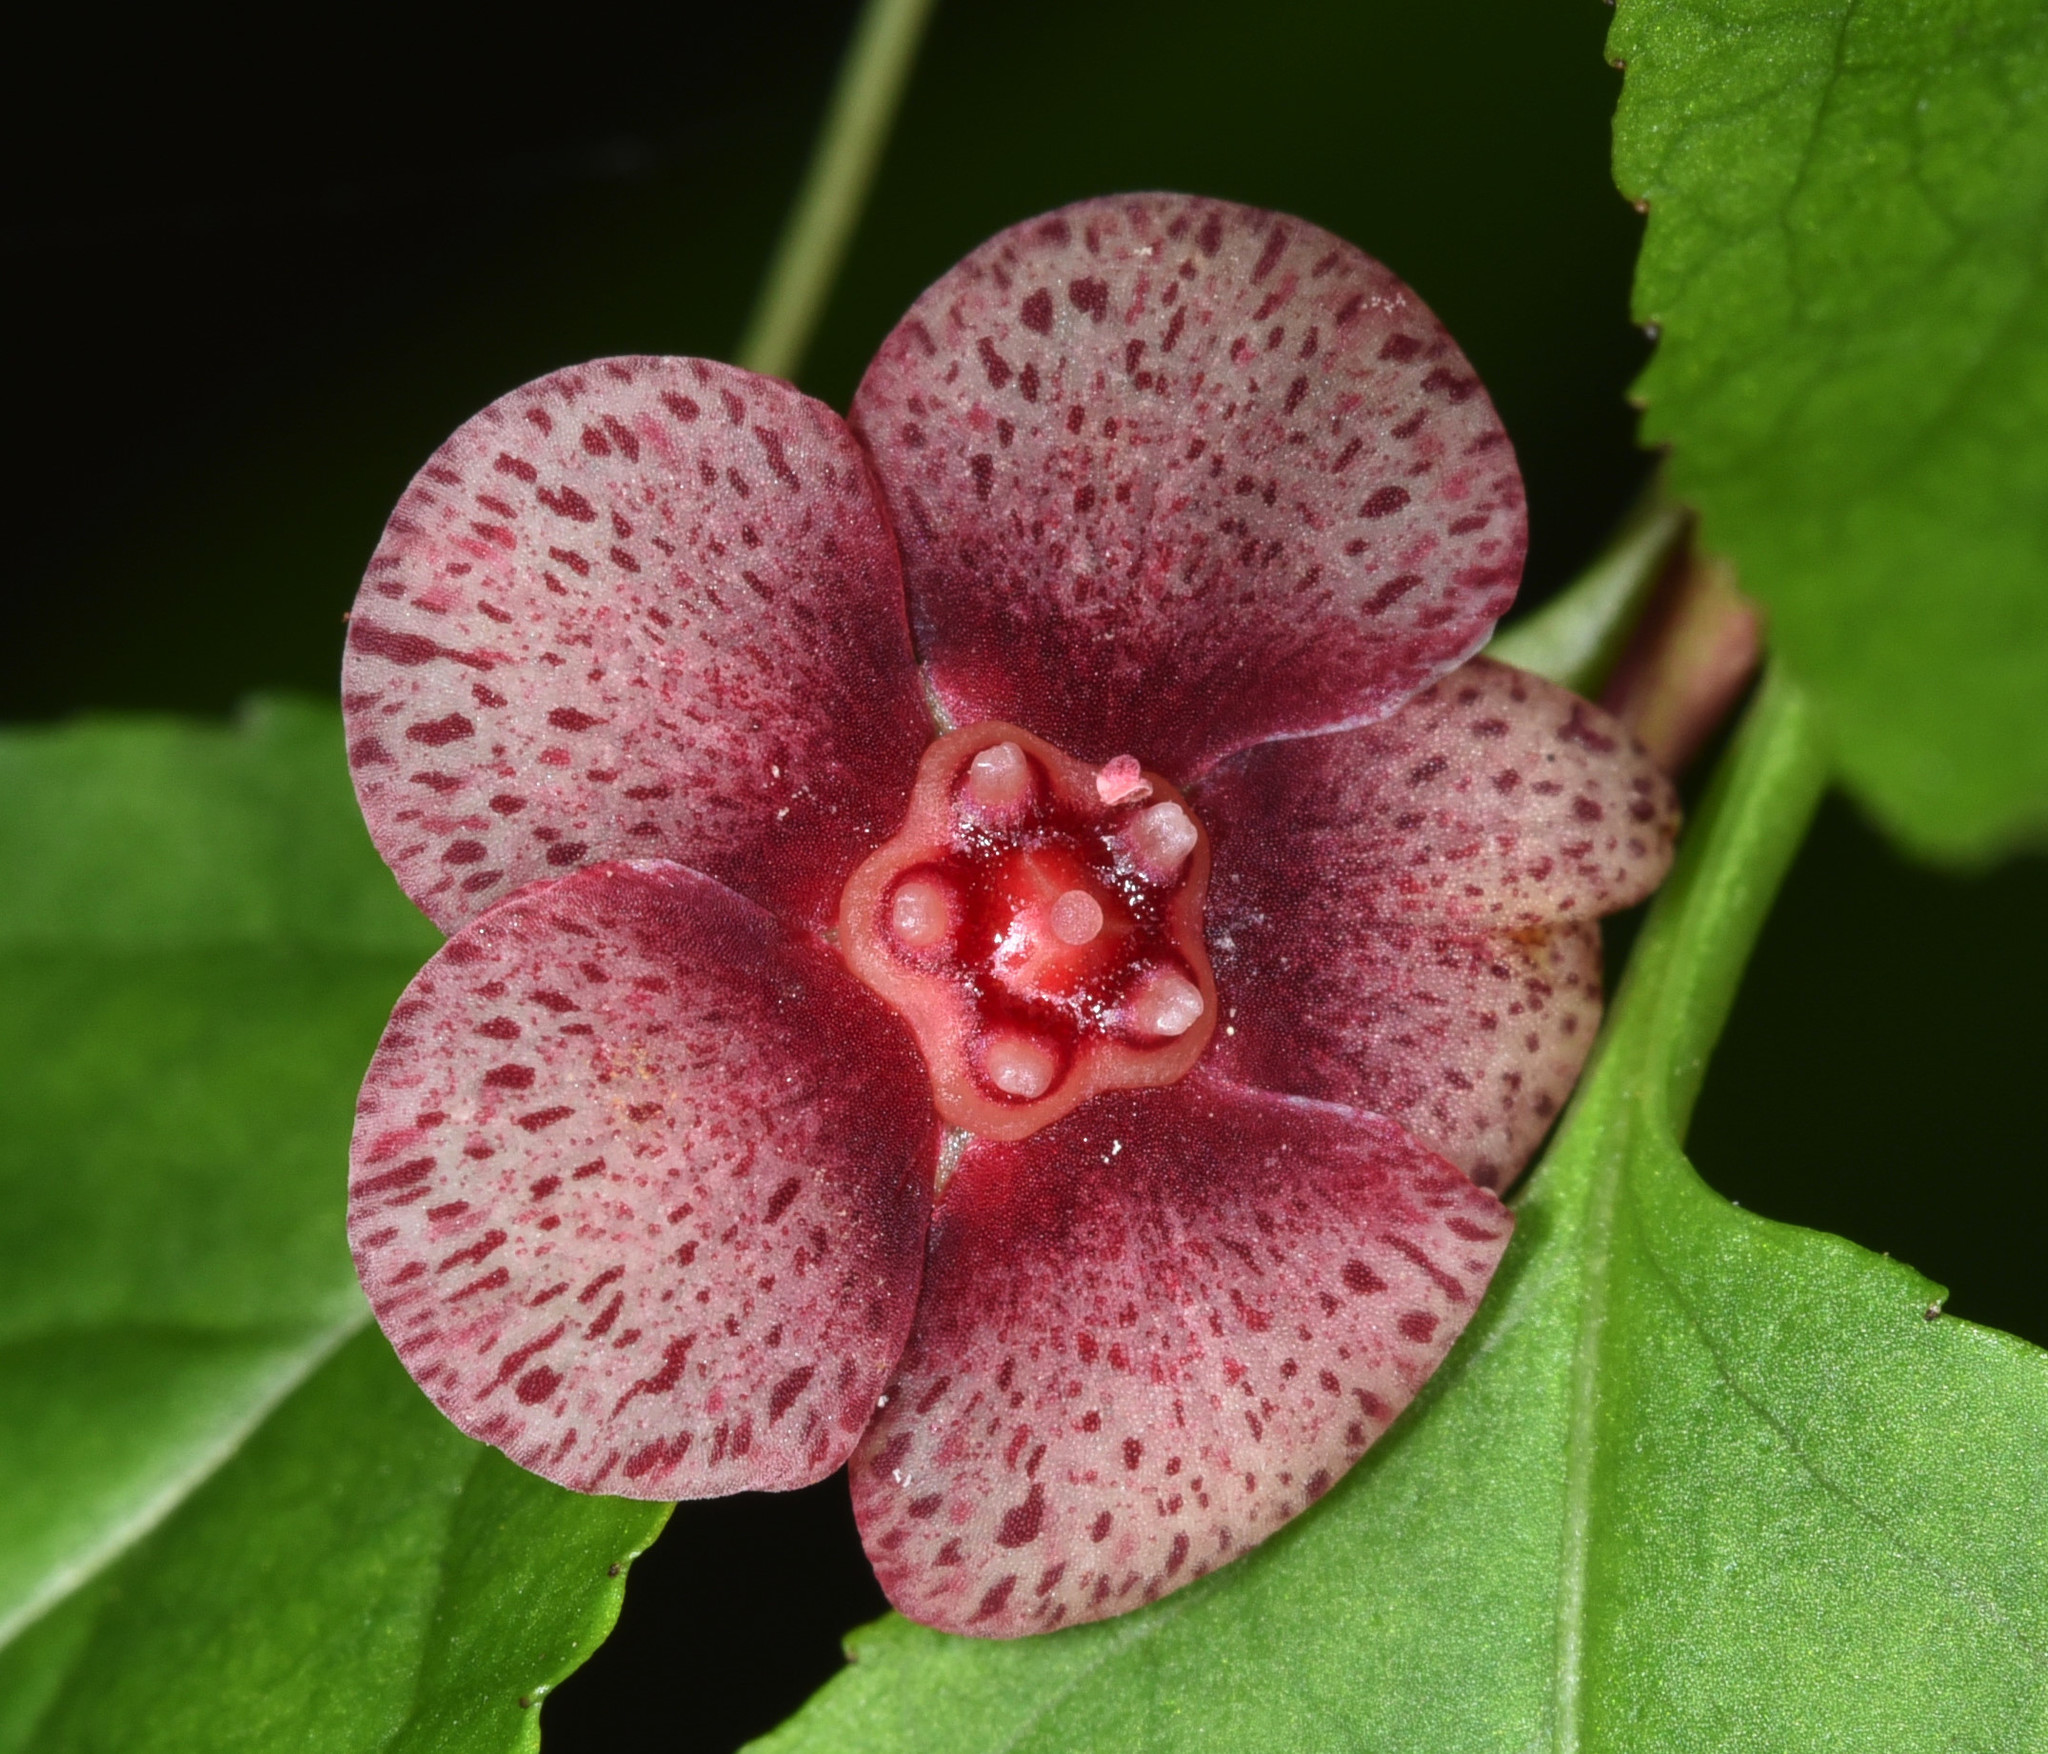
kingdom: Plantae
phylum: Tracheophyta
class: Magnoliopsida
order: Celastrales
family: Celastraceae
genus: Euonymus
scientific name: Euonymus occidentalis
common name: Western burningbush
